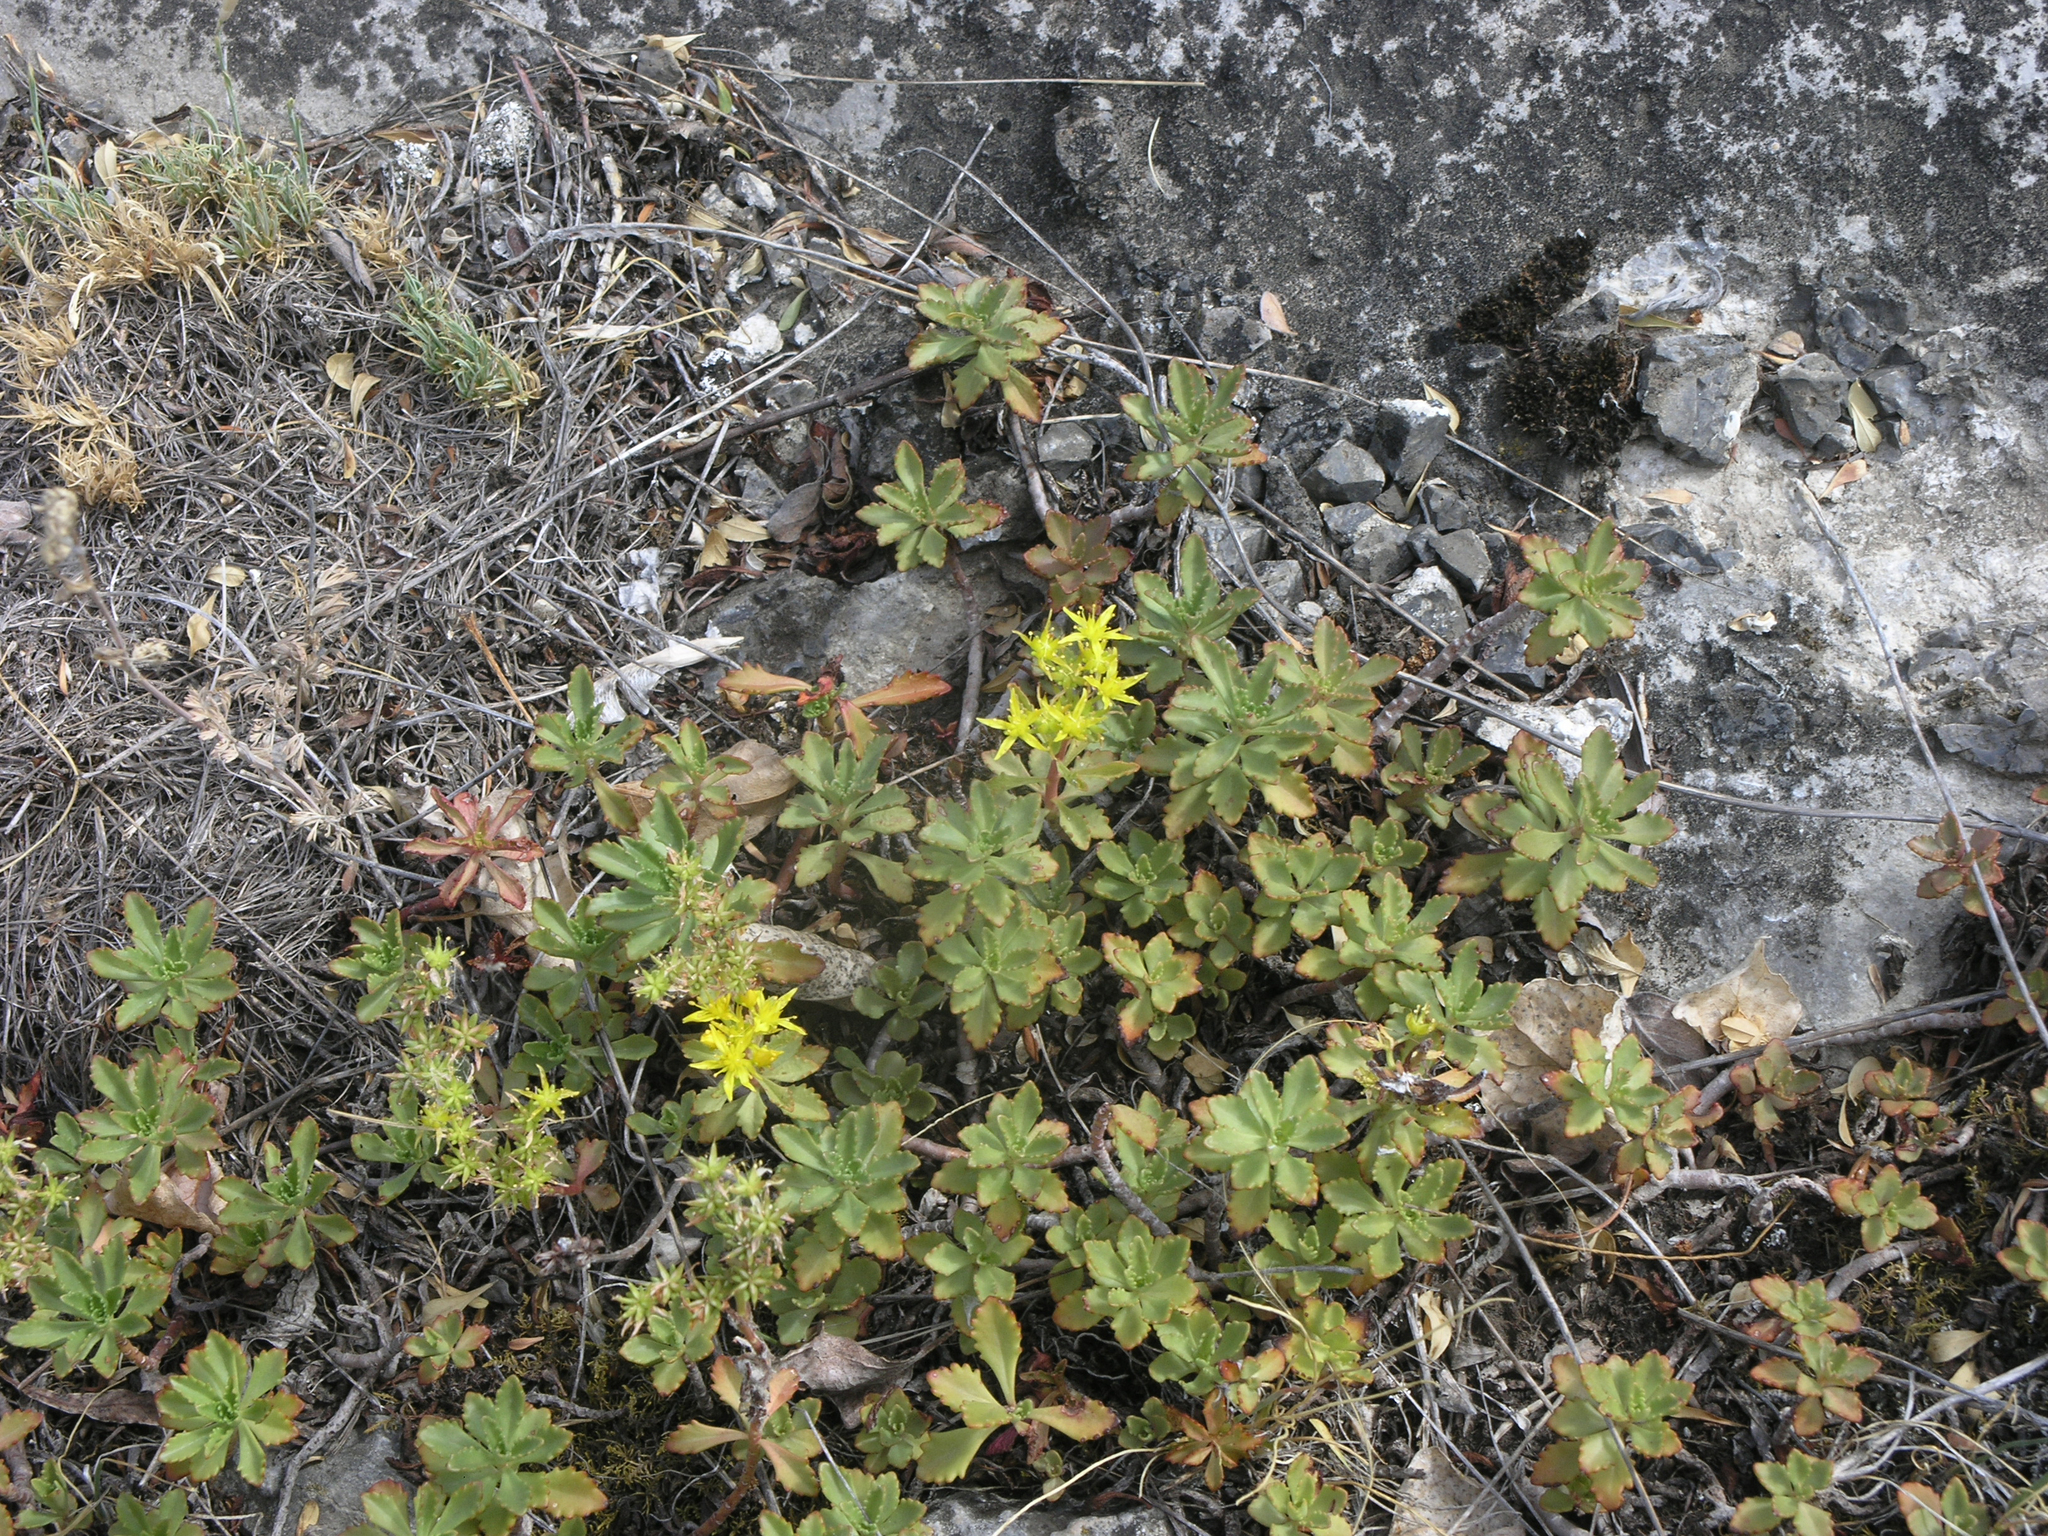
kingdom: Plantae
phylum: Tracheophyta
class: Magnoliopsida
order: Saxifragales
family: Crassulaceae
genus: Phedimus
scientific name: Phedimus hybridus
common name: Hybrid stonecrop
